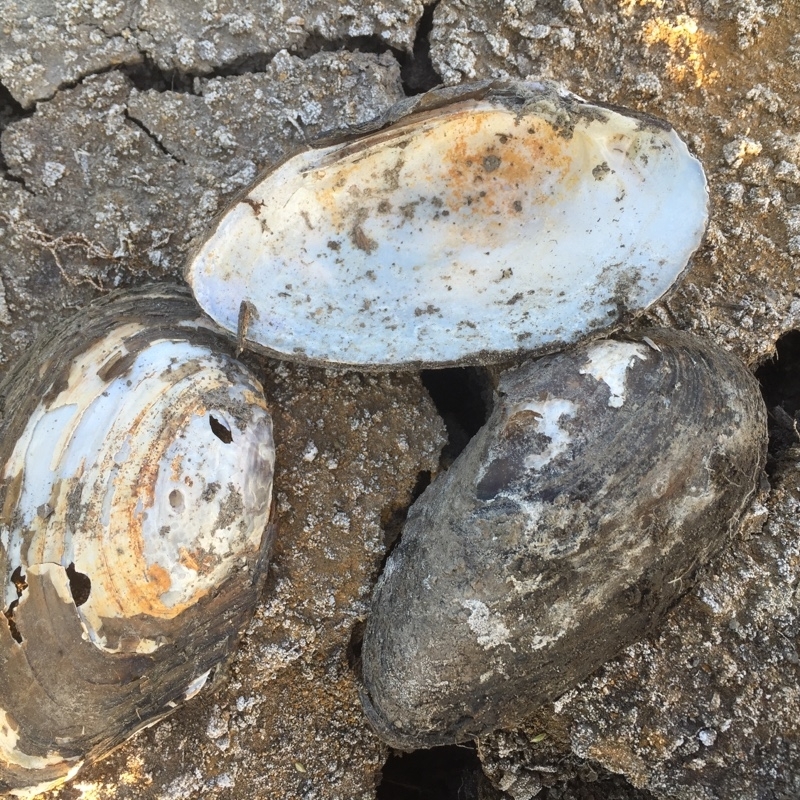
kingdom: Animalia
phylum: Mollusca
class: Bivalvia
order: Unionida
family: Unionidae
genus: Unio
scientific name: Unio tumidus
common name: Swollen river mussel
